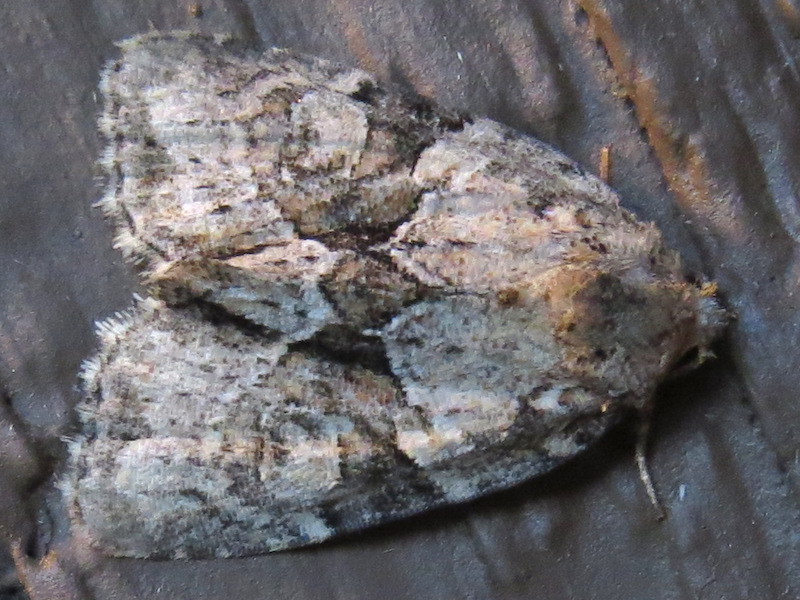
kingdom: Animalia
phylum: Arthropoda
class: Insecta
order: Lepidoptera
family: Noctuidae
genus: Neoligia
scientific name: Neoligia exhausta
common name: Exhausted brocade
